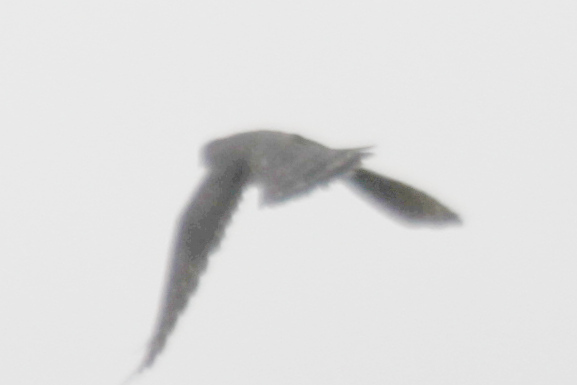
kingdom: Animalia
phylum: Chordata
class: Aves
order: Falconiformes
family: Falconidae
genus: Falco
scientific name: Falco columbarius
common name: Merlin
